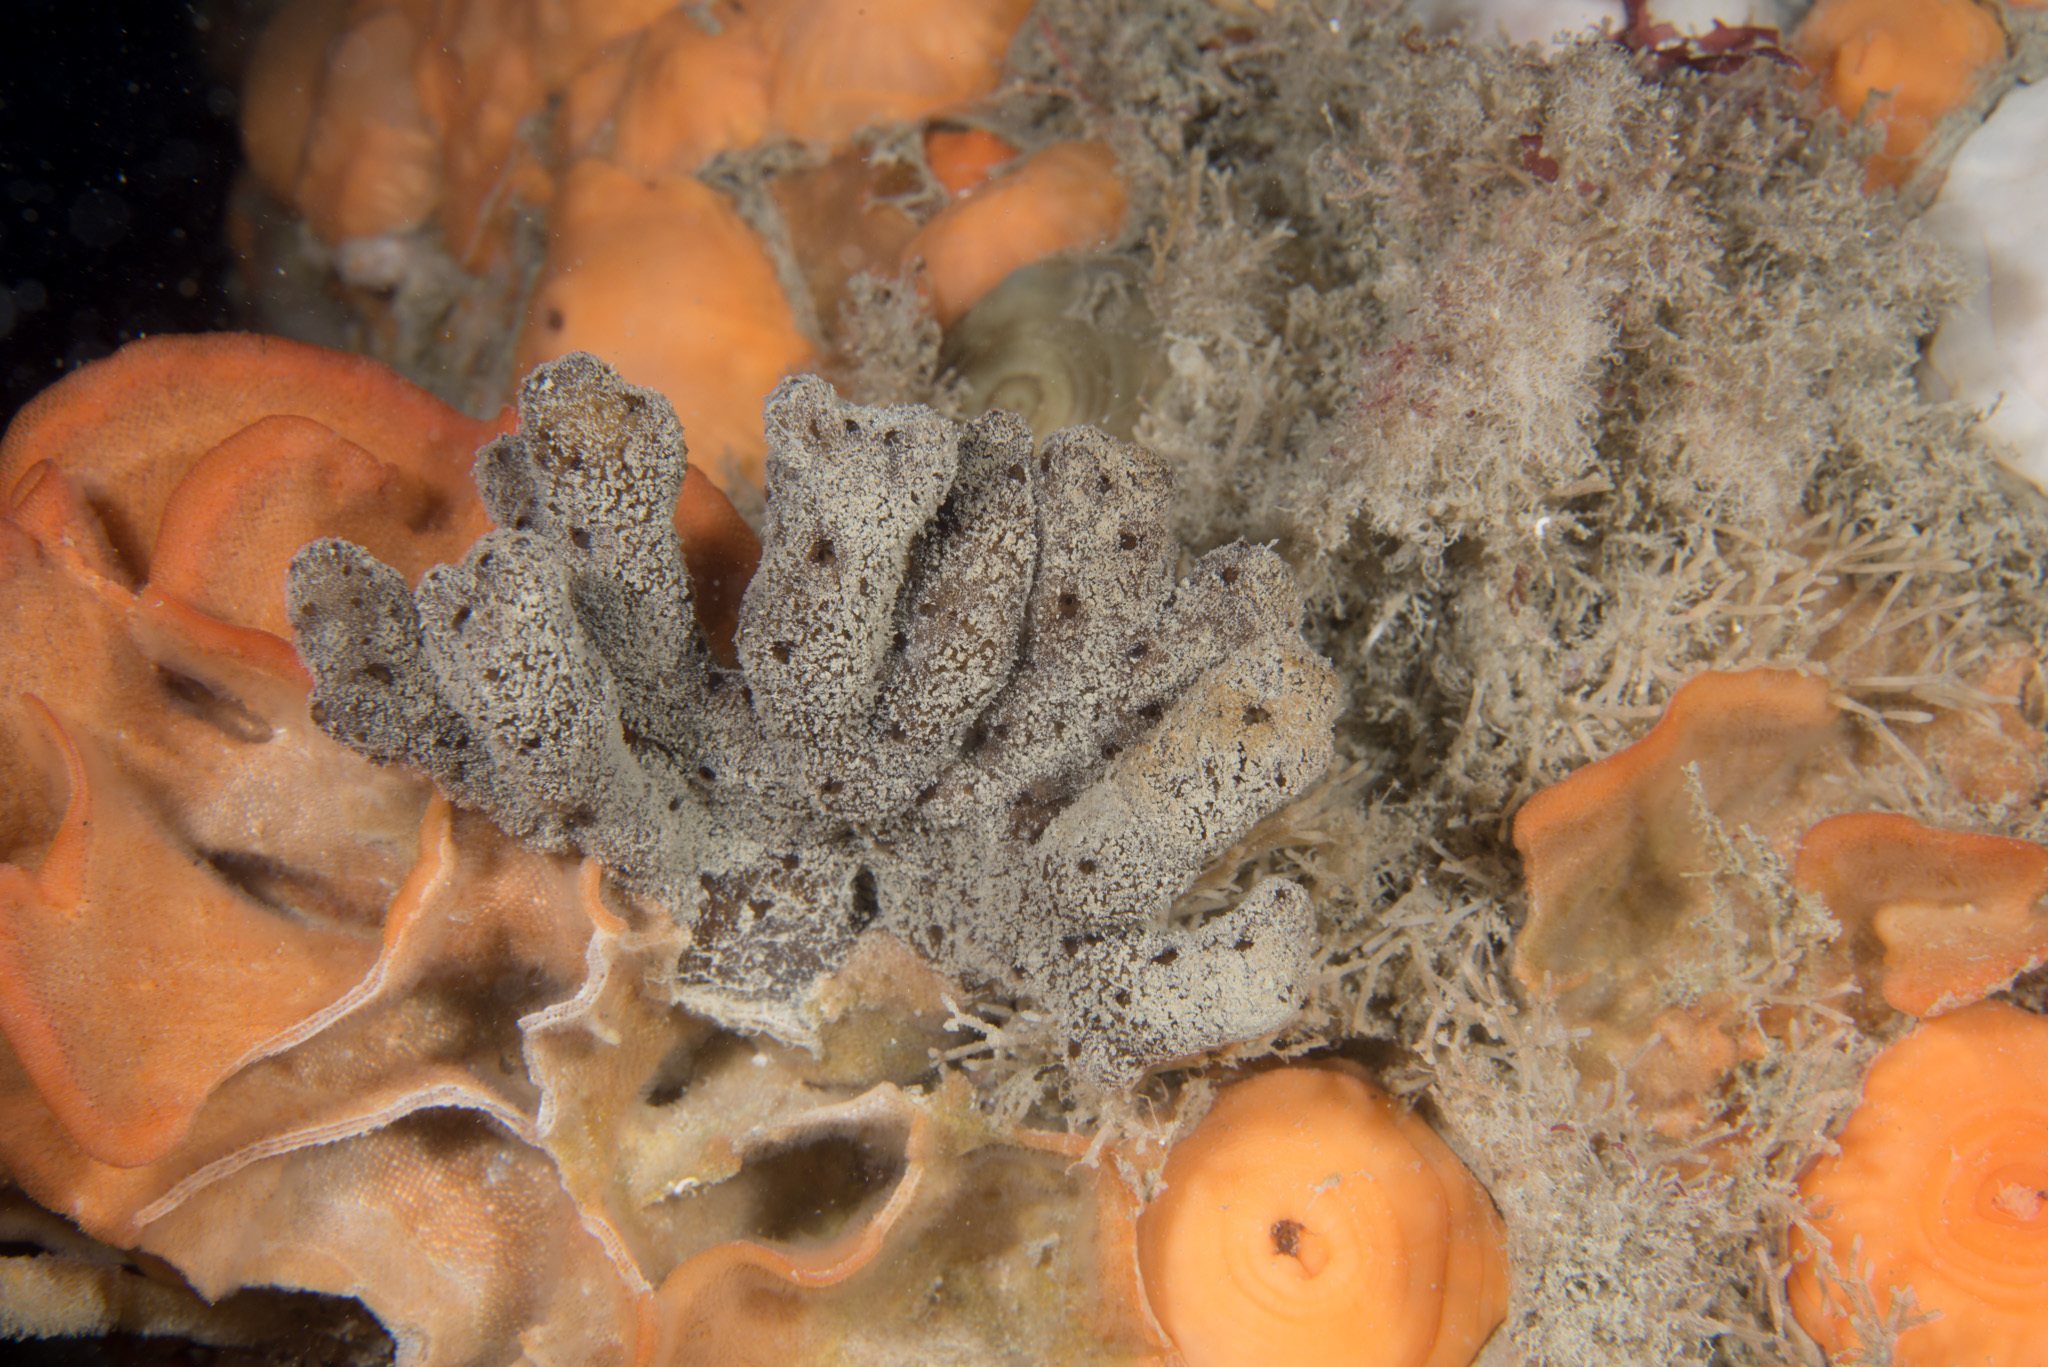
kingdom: Animalia
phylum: Porifera
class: Demospongiae
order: Axinellida
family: Raspailiidae
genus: Raspailia
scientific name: Raspailia ramosa
